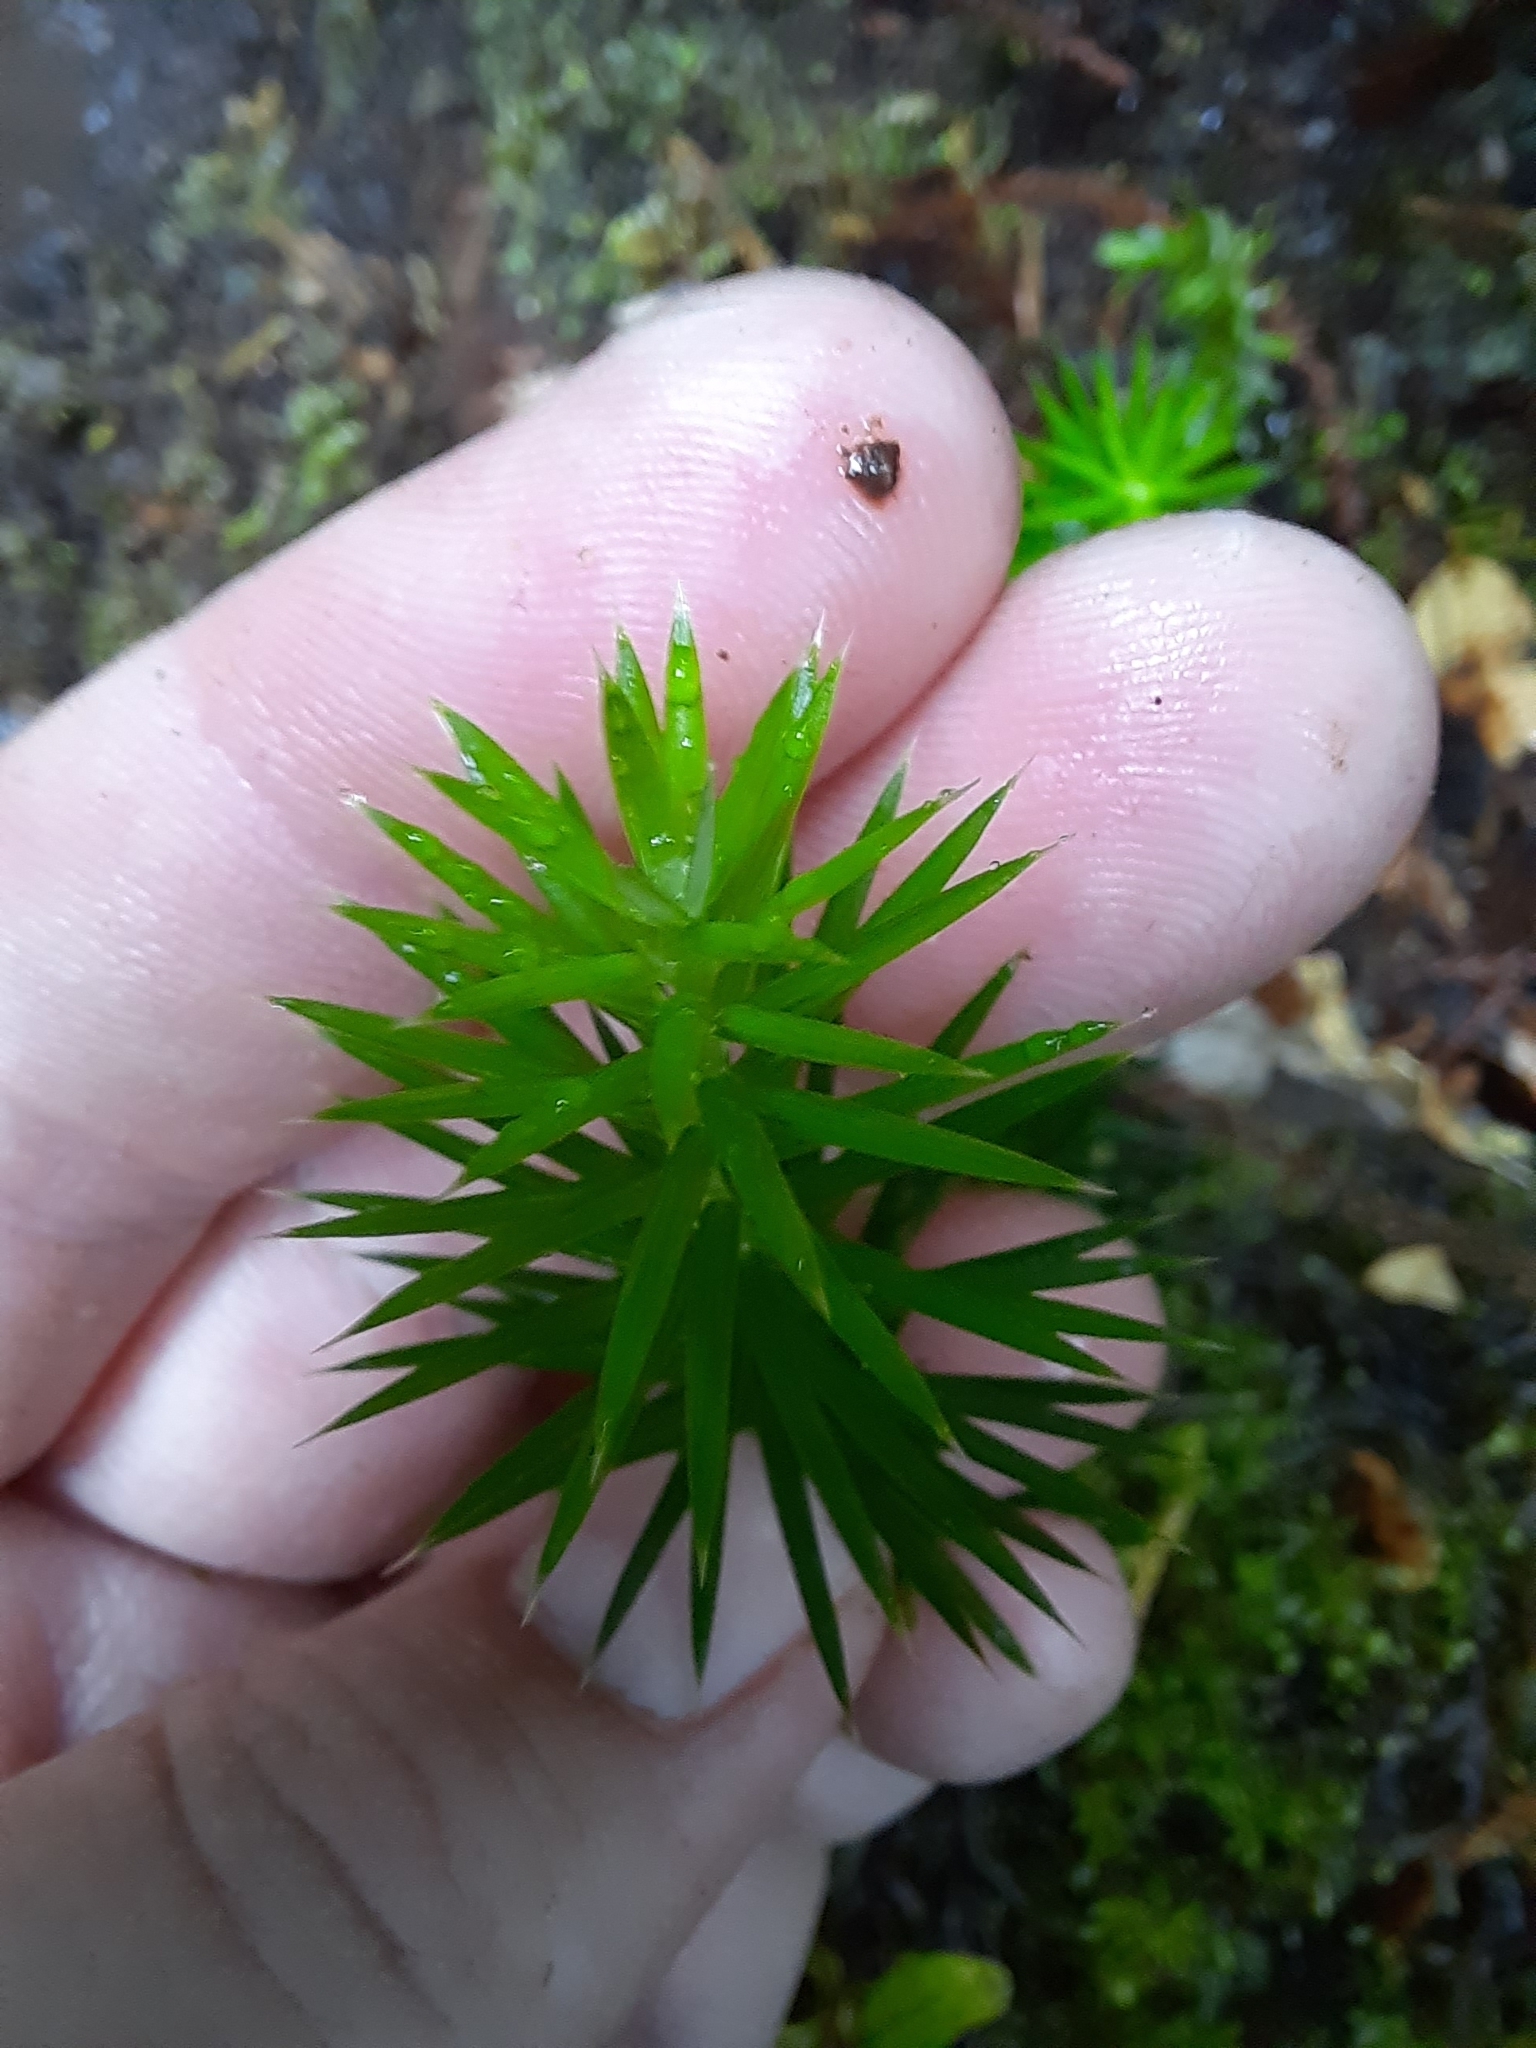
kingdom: Plantae
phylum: Tracheophyta
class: Magnoliopsida
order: Ericales
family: Ericaceae
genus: Leptecophylla
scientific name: Leptecophylla juniperina
